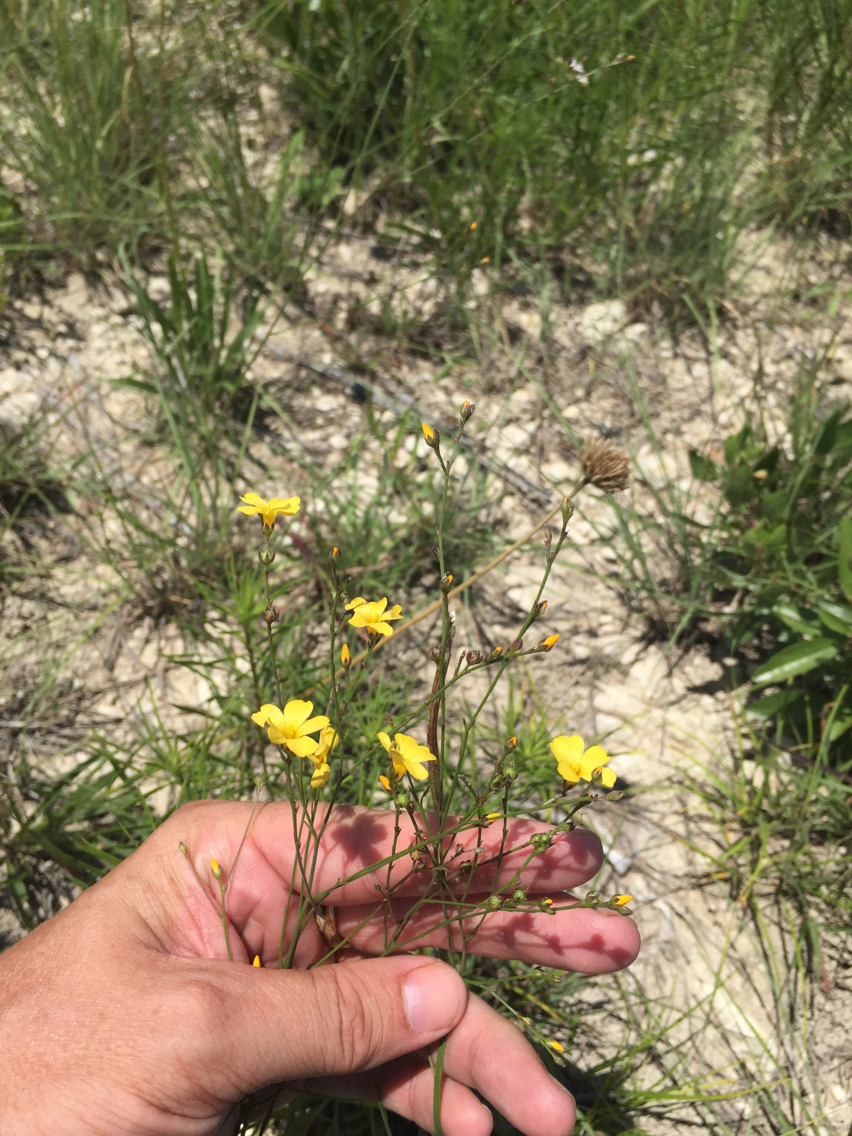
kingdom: Plantae
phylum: Tracheophyta
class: Magnoliopsida
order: Malpighiales
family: Linaceae
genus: Linum
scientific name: Linum rupestre
